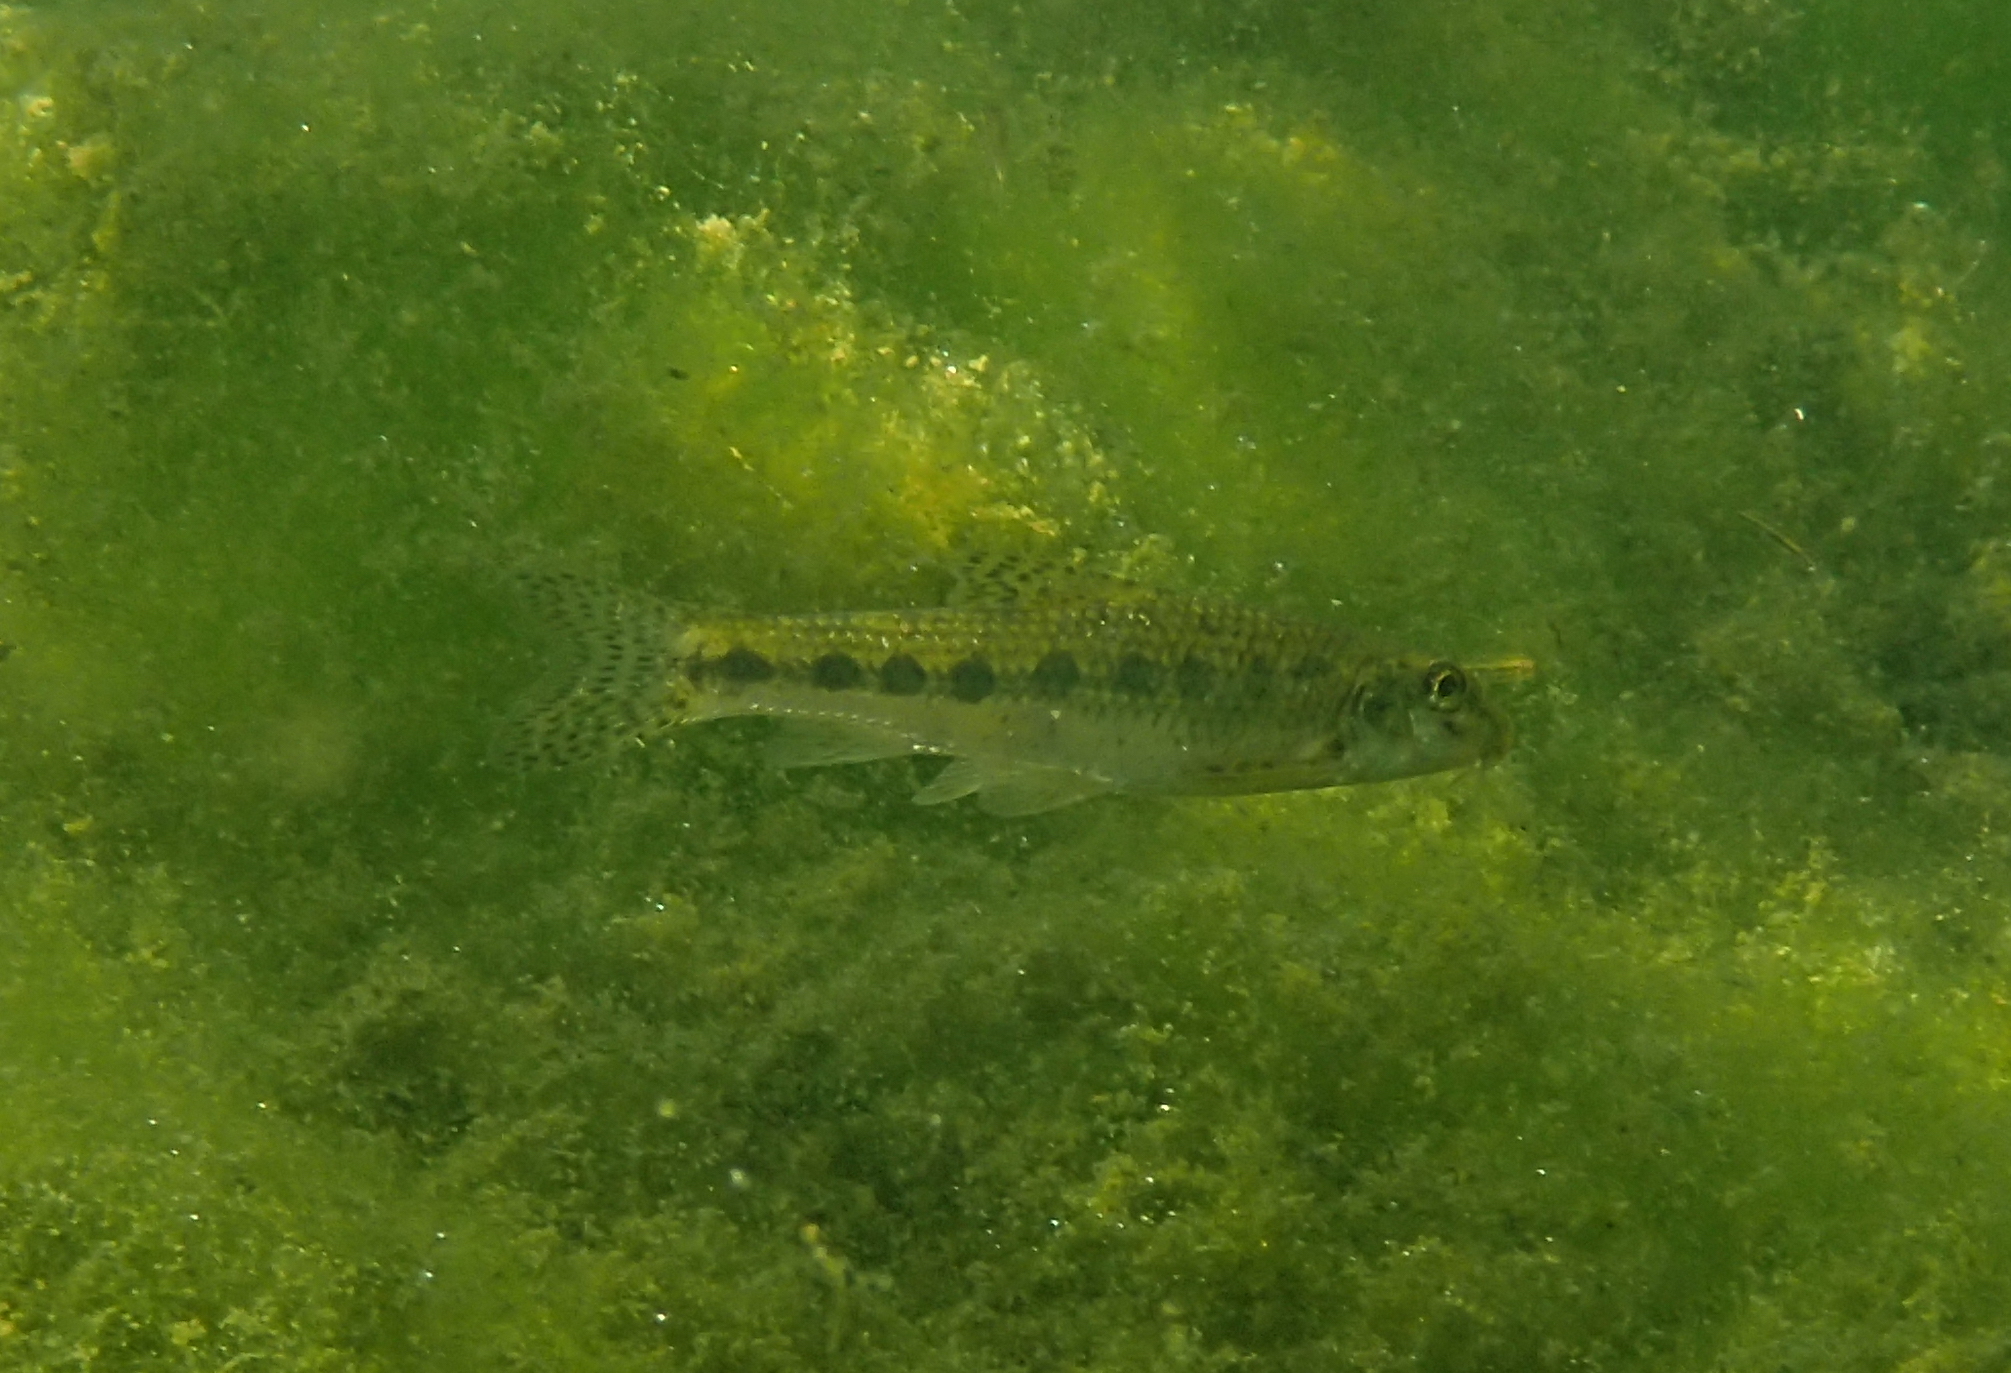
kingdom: Animalia
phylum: Chordata
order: Cypriniformes
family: Cyprinidae
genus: Gobio
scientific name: Gobio gobio
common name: Gudgeon
